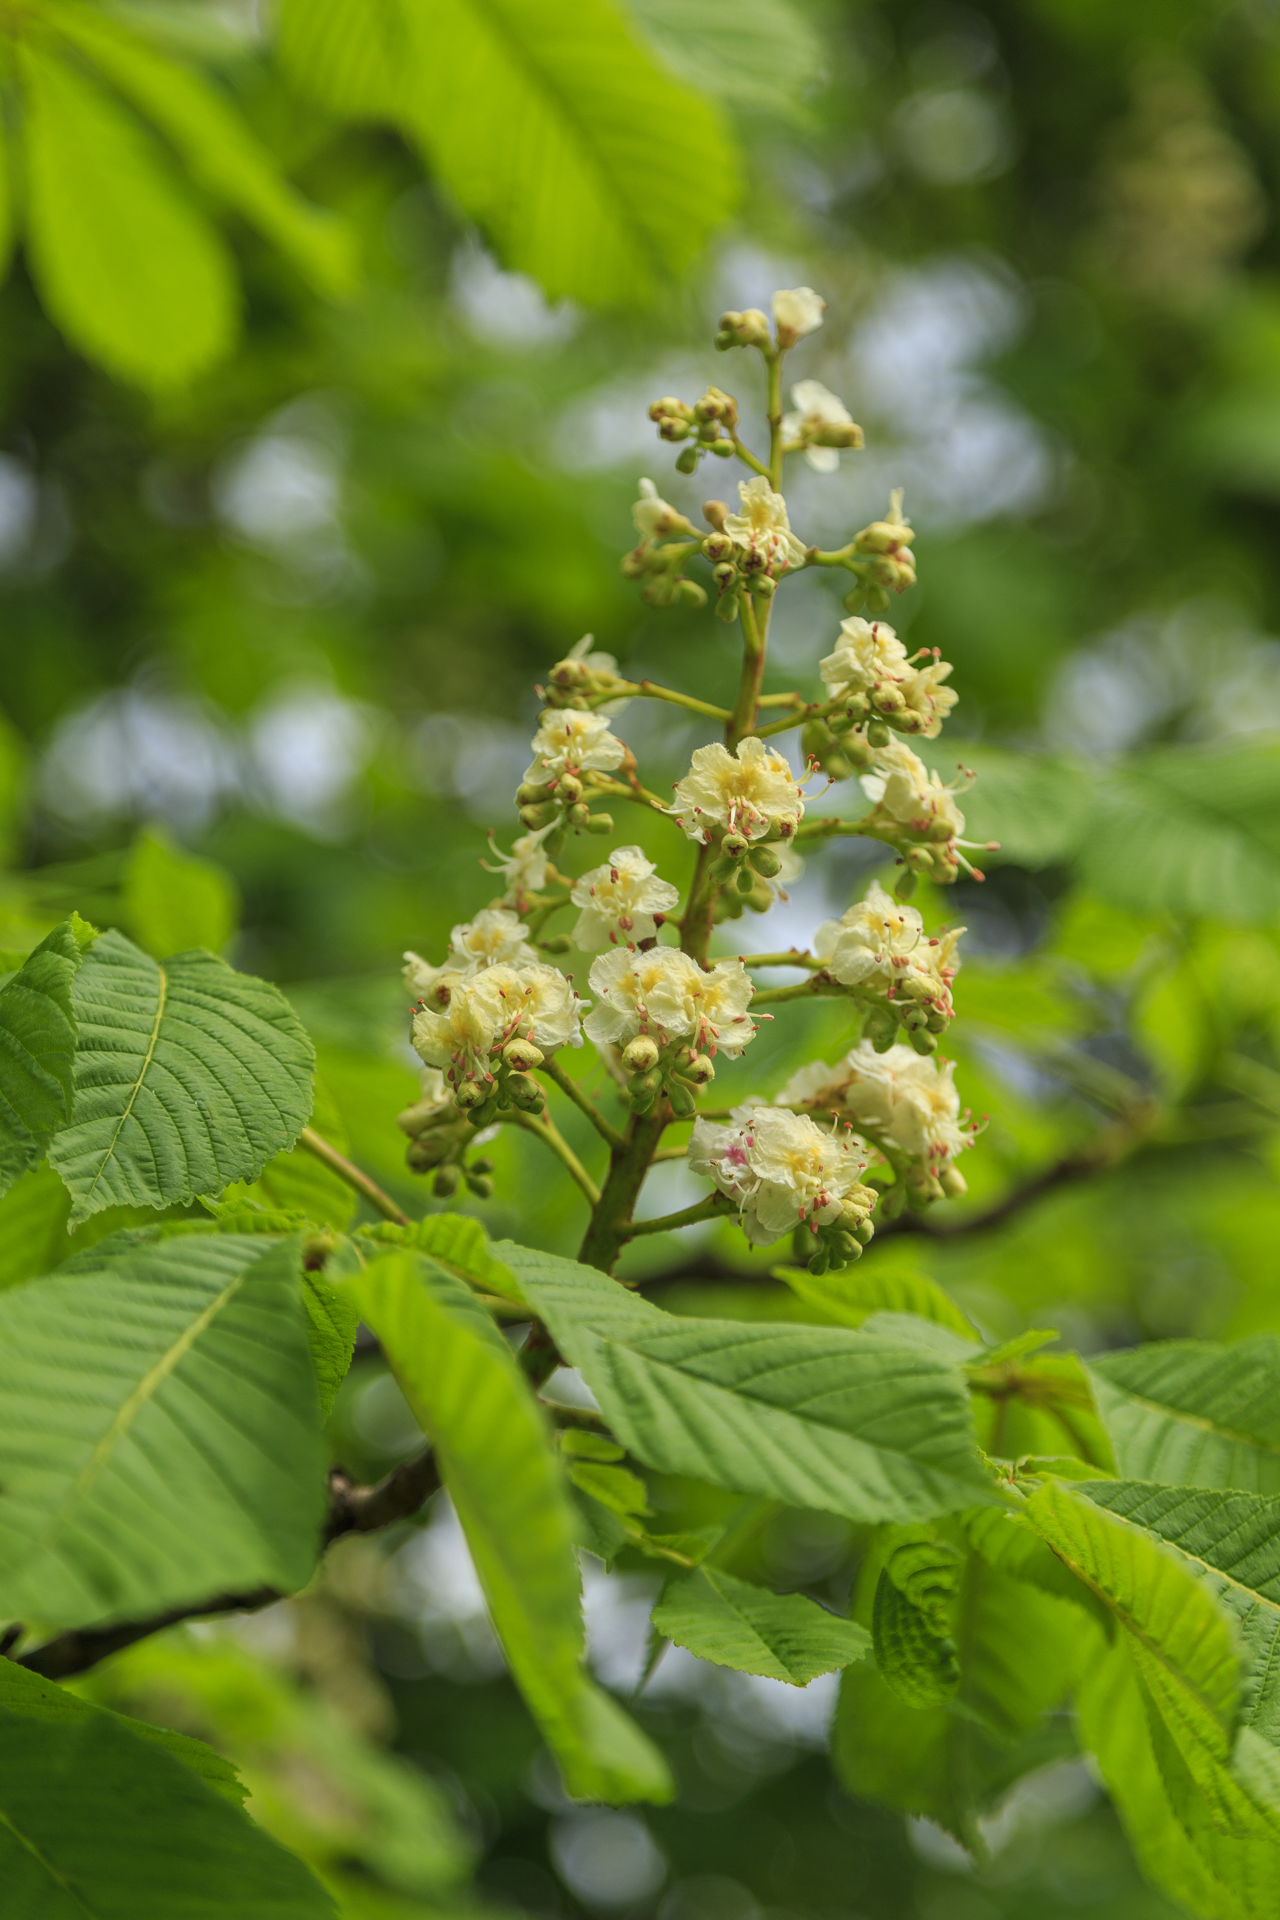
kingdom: Plantae
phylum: Tracheophyta
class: Magnoliopsida
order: Sapindales
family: Sapindaceae
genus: Aesculus
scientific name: Aesculus hippocastanum
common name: Horse-chestnut
